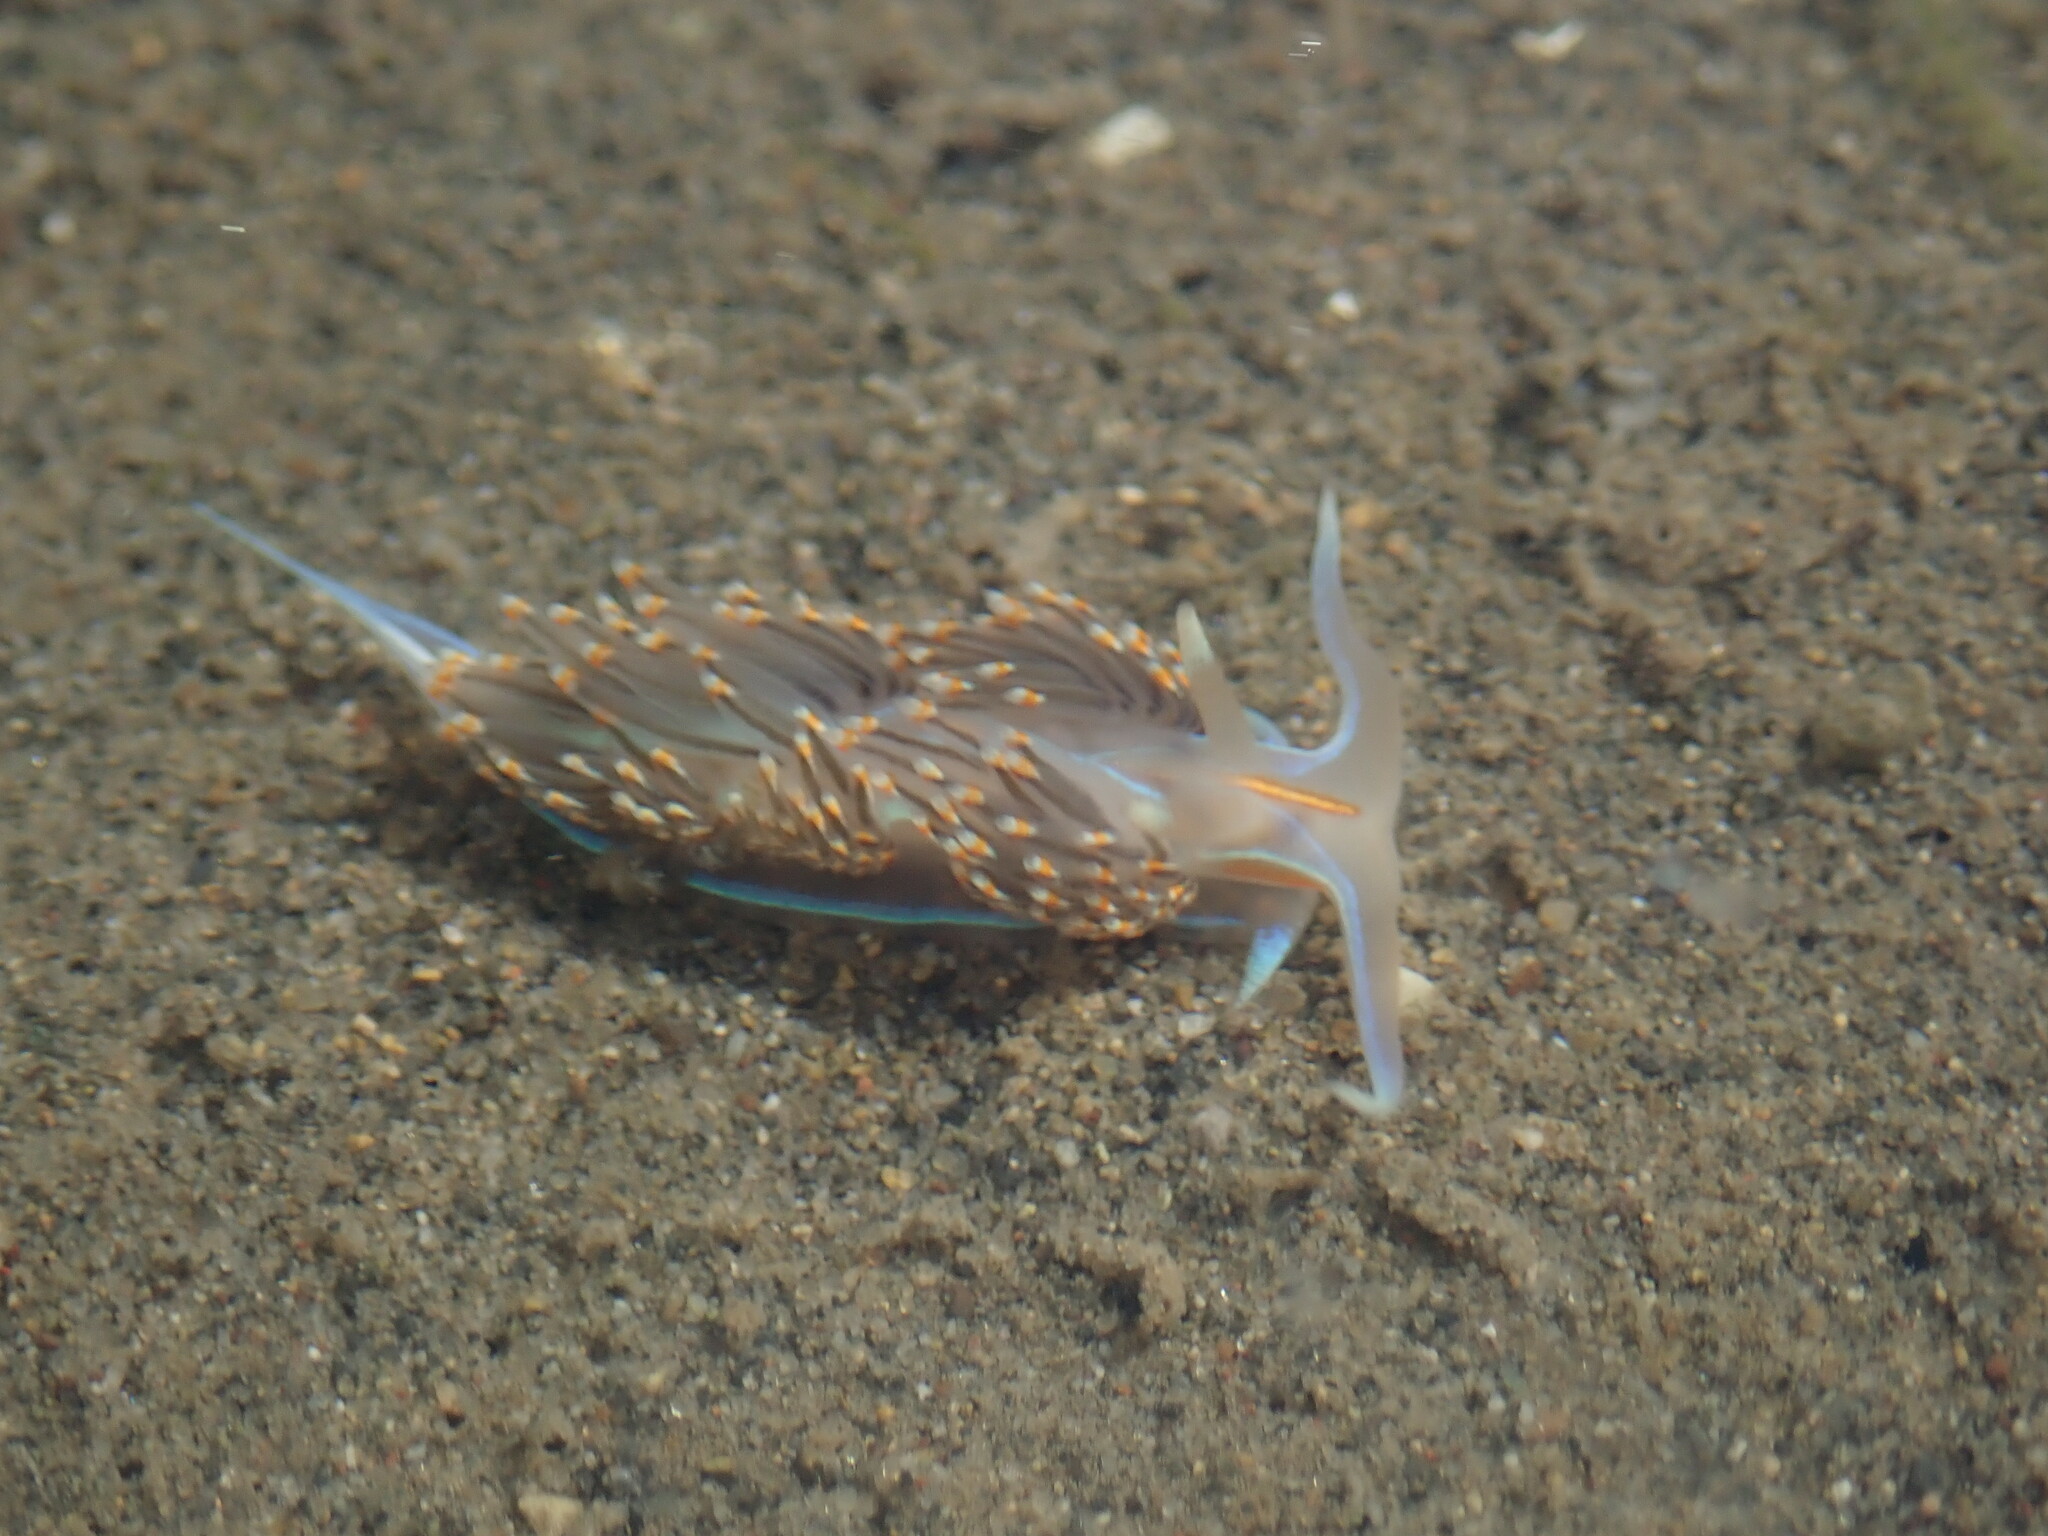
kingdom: Animalia
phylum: Mollusca
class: Gastropoda
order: Nudibranchia
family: Myrrhinidae
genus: Hermissenda
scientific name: Hermissenda opalescens
